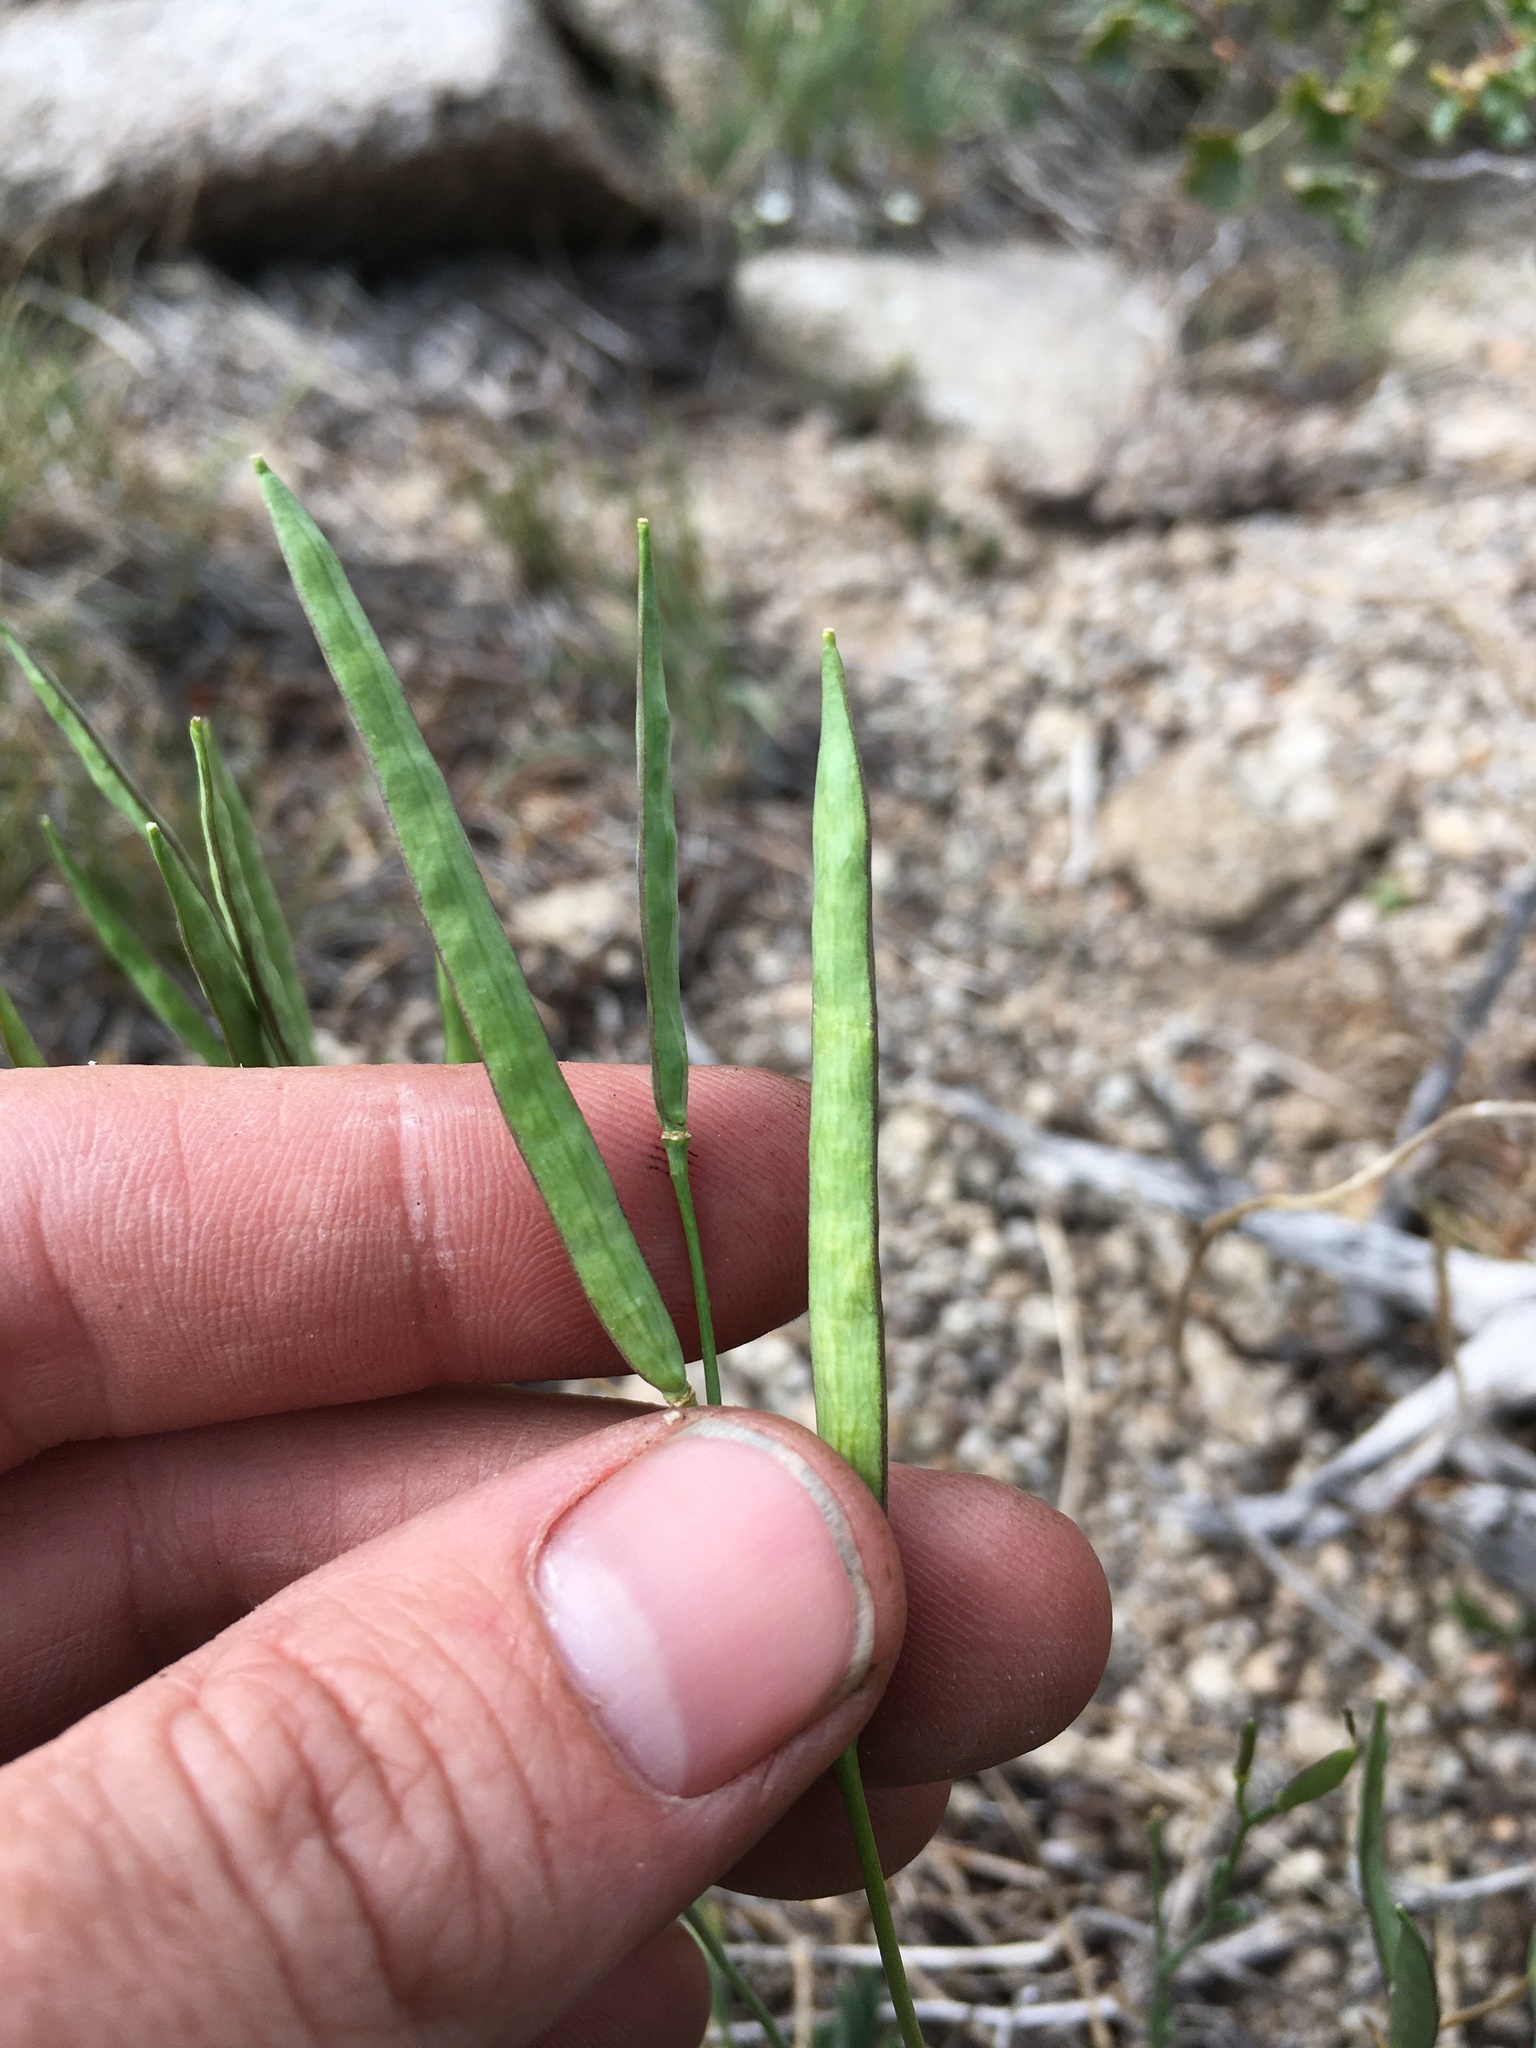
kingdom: Plantae
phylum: Tracheophyta
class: Magnoliopsida
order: Brassicales
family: Brassicaceae
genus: Boechera
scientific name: Boechera platysperma
